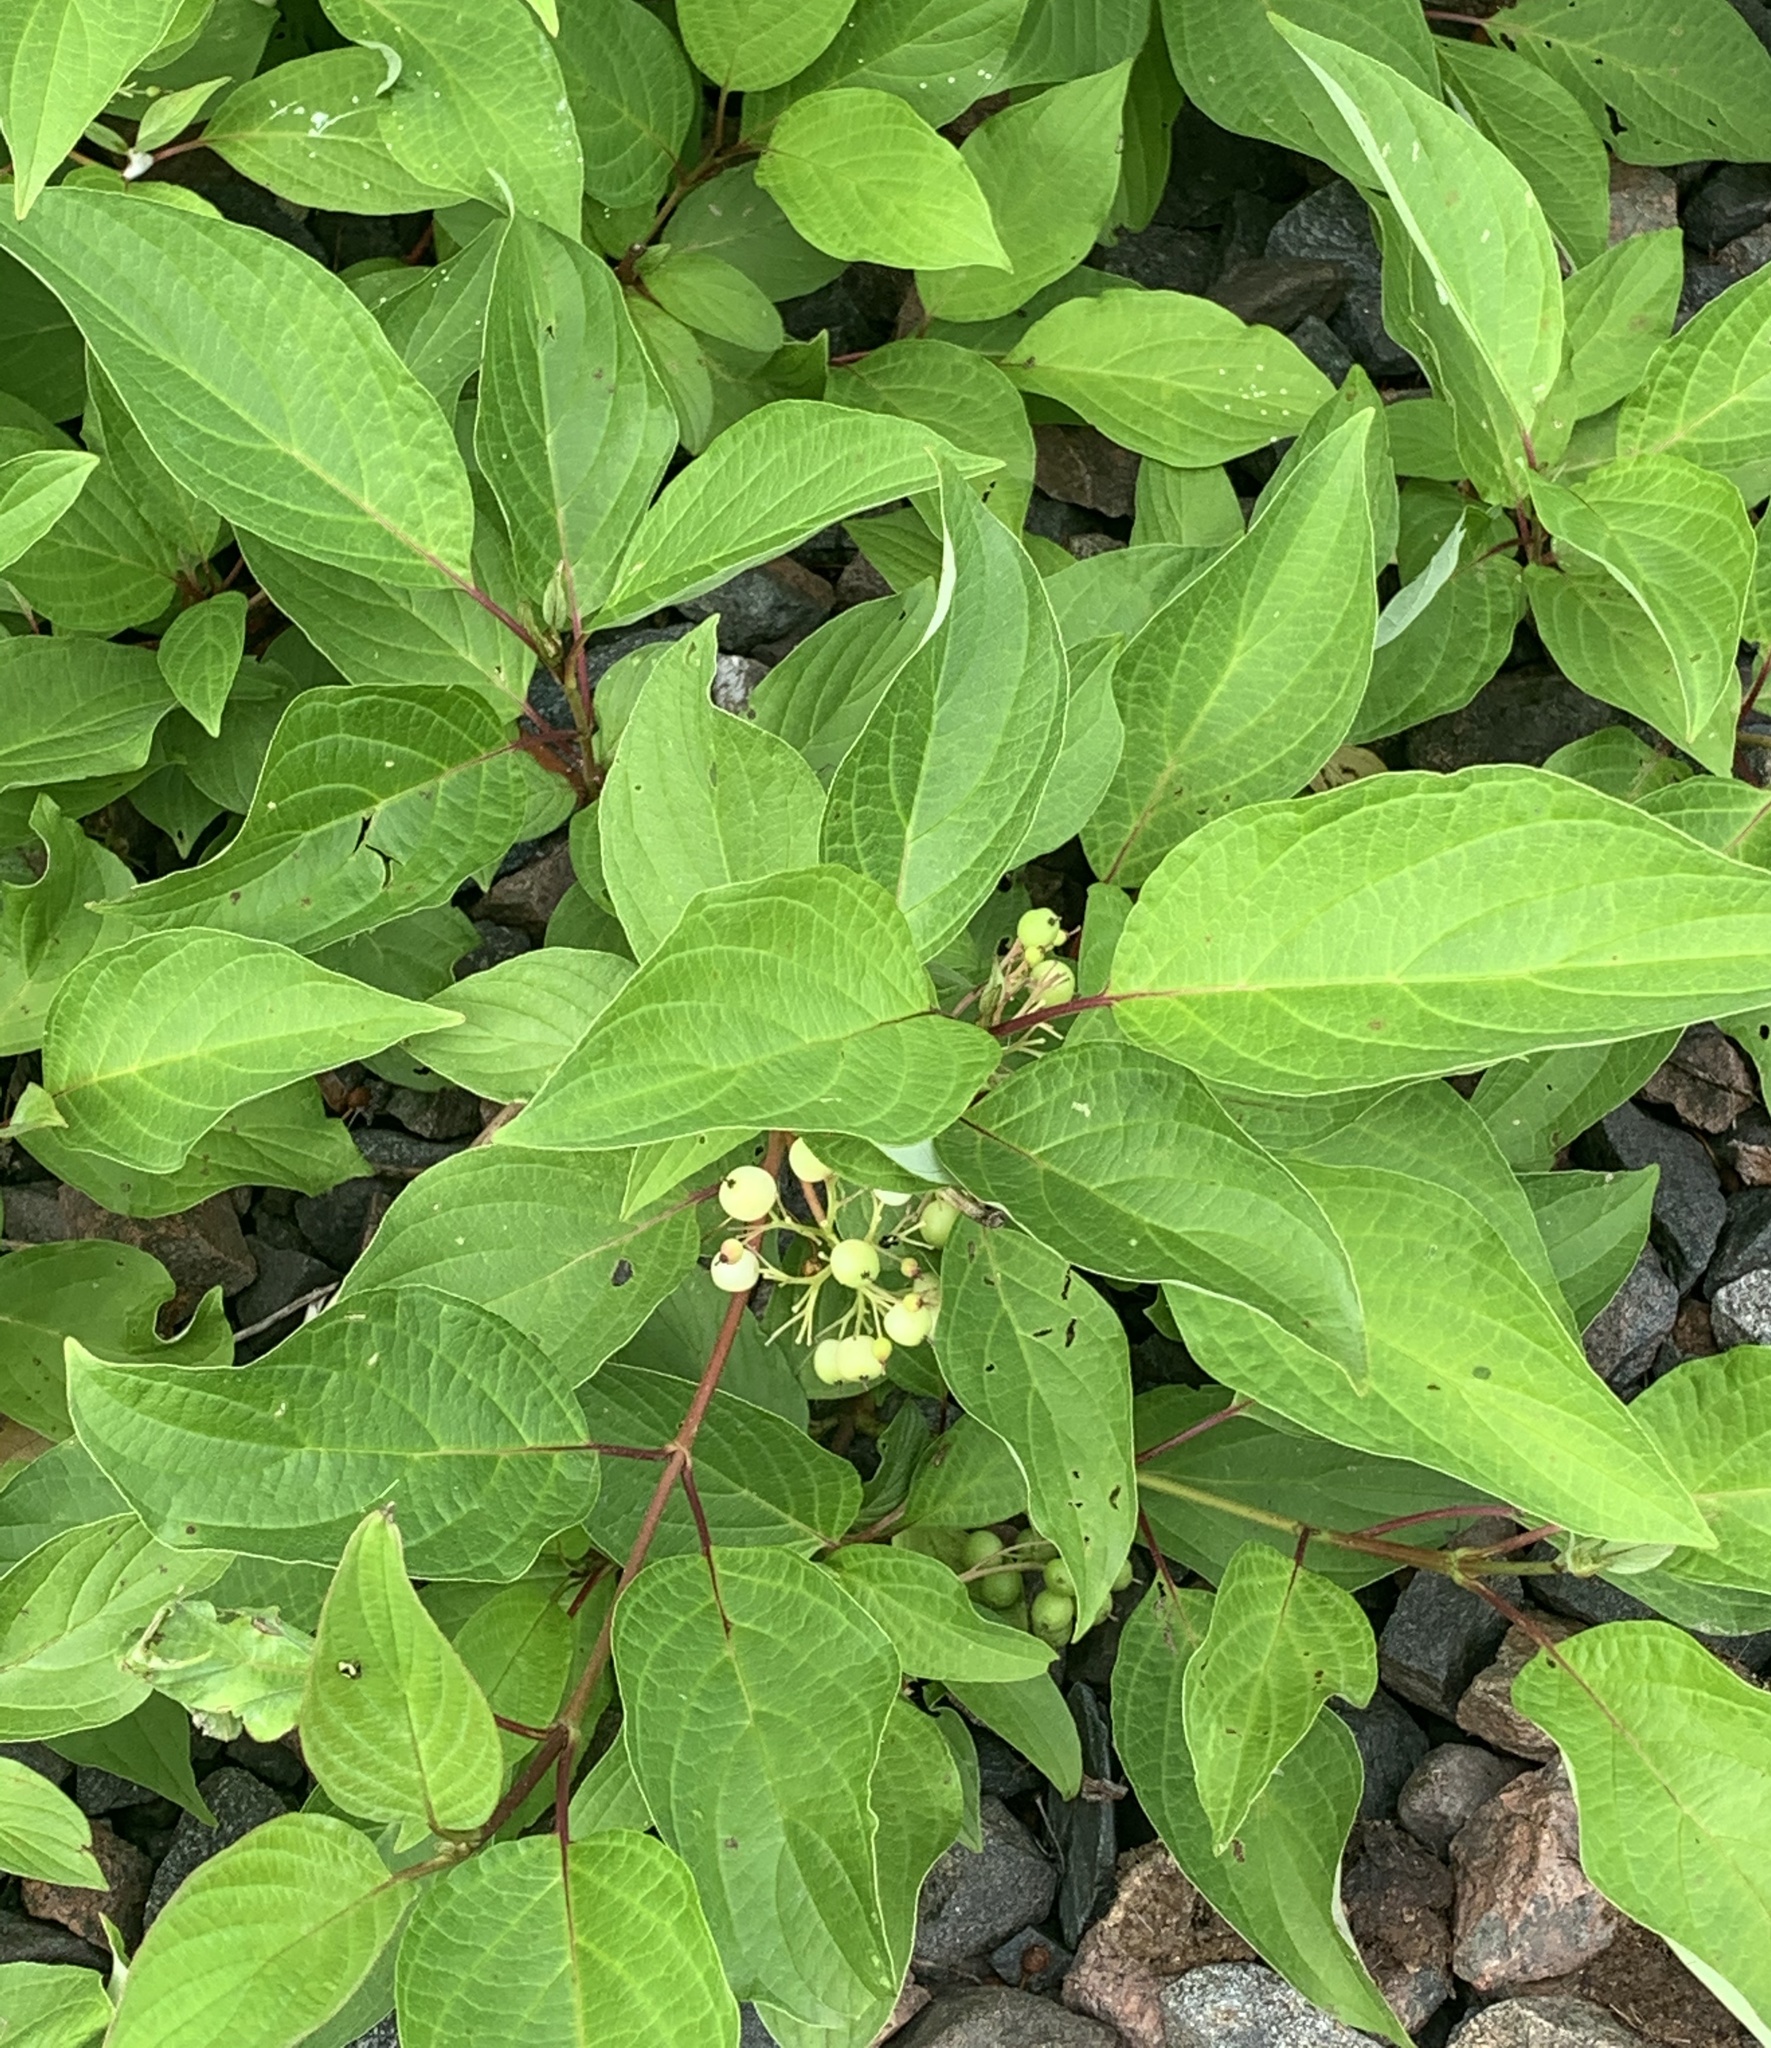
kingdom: Plantae
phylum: Tracheophyta
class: Magnoliopsida
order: Cornales
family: Cornaceae
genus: Cornus
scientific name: Cornus sericea
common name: Red-osier dogwood
